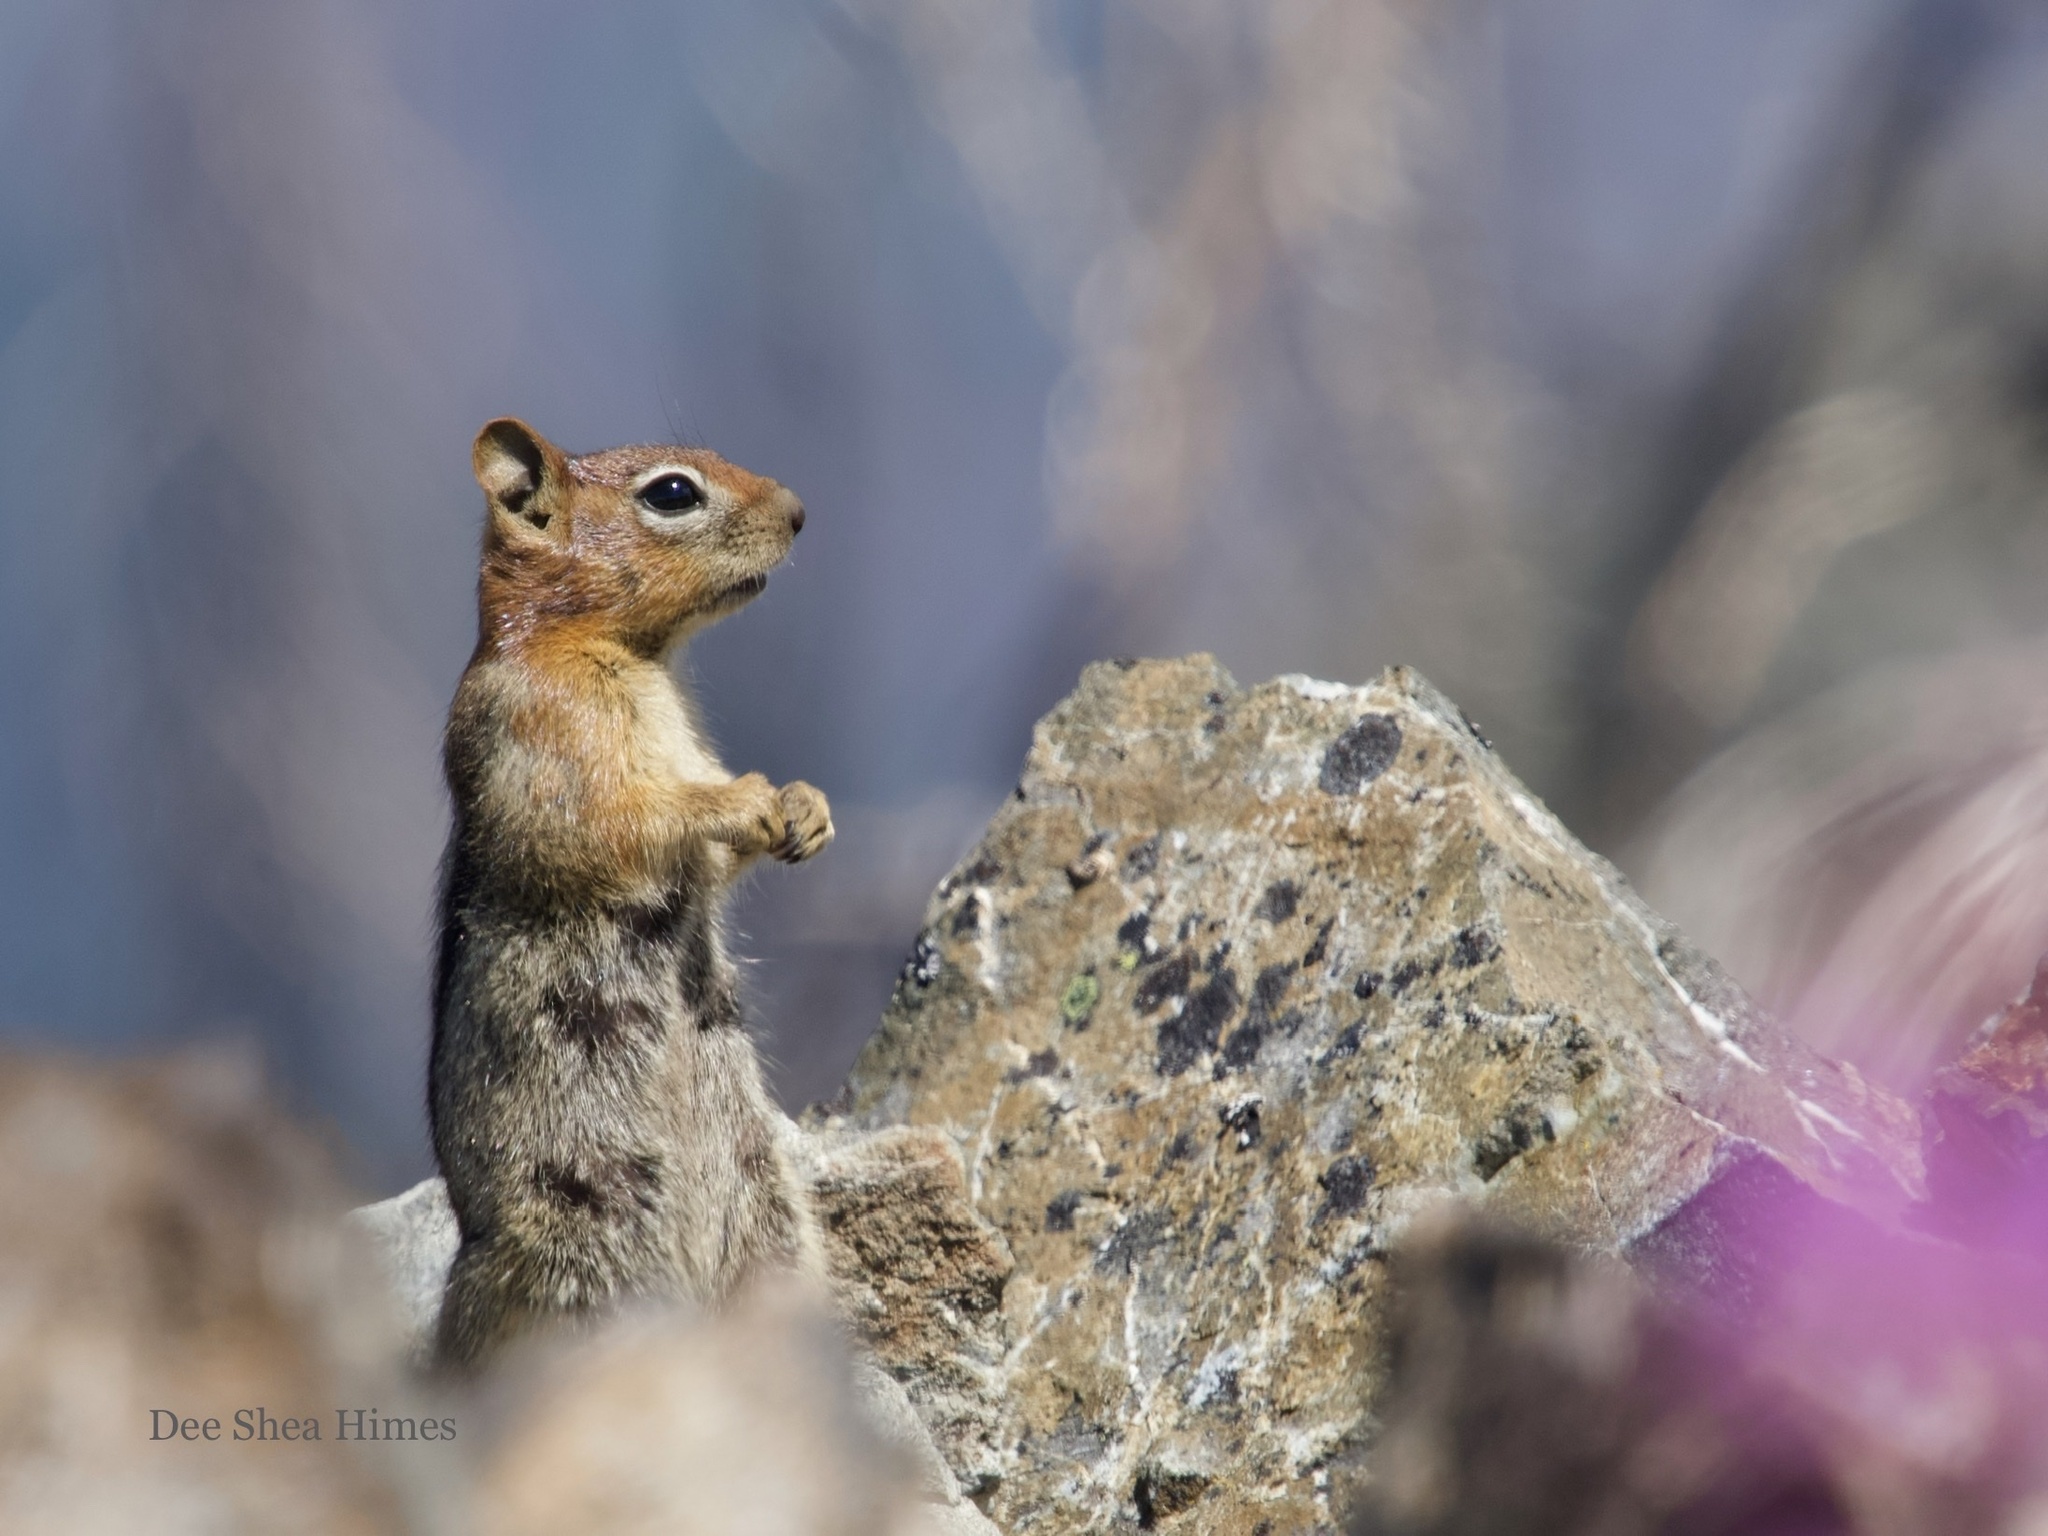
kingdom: Animalia
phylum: Chordata
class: Mammalia
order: Rodentia
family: Sciuridae
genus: Callospermophilus
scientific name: Callospermophilus lateralis
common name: Golden-mantled ground squirrel
